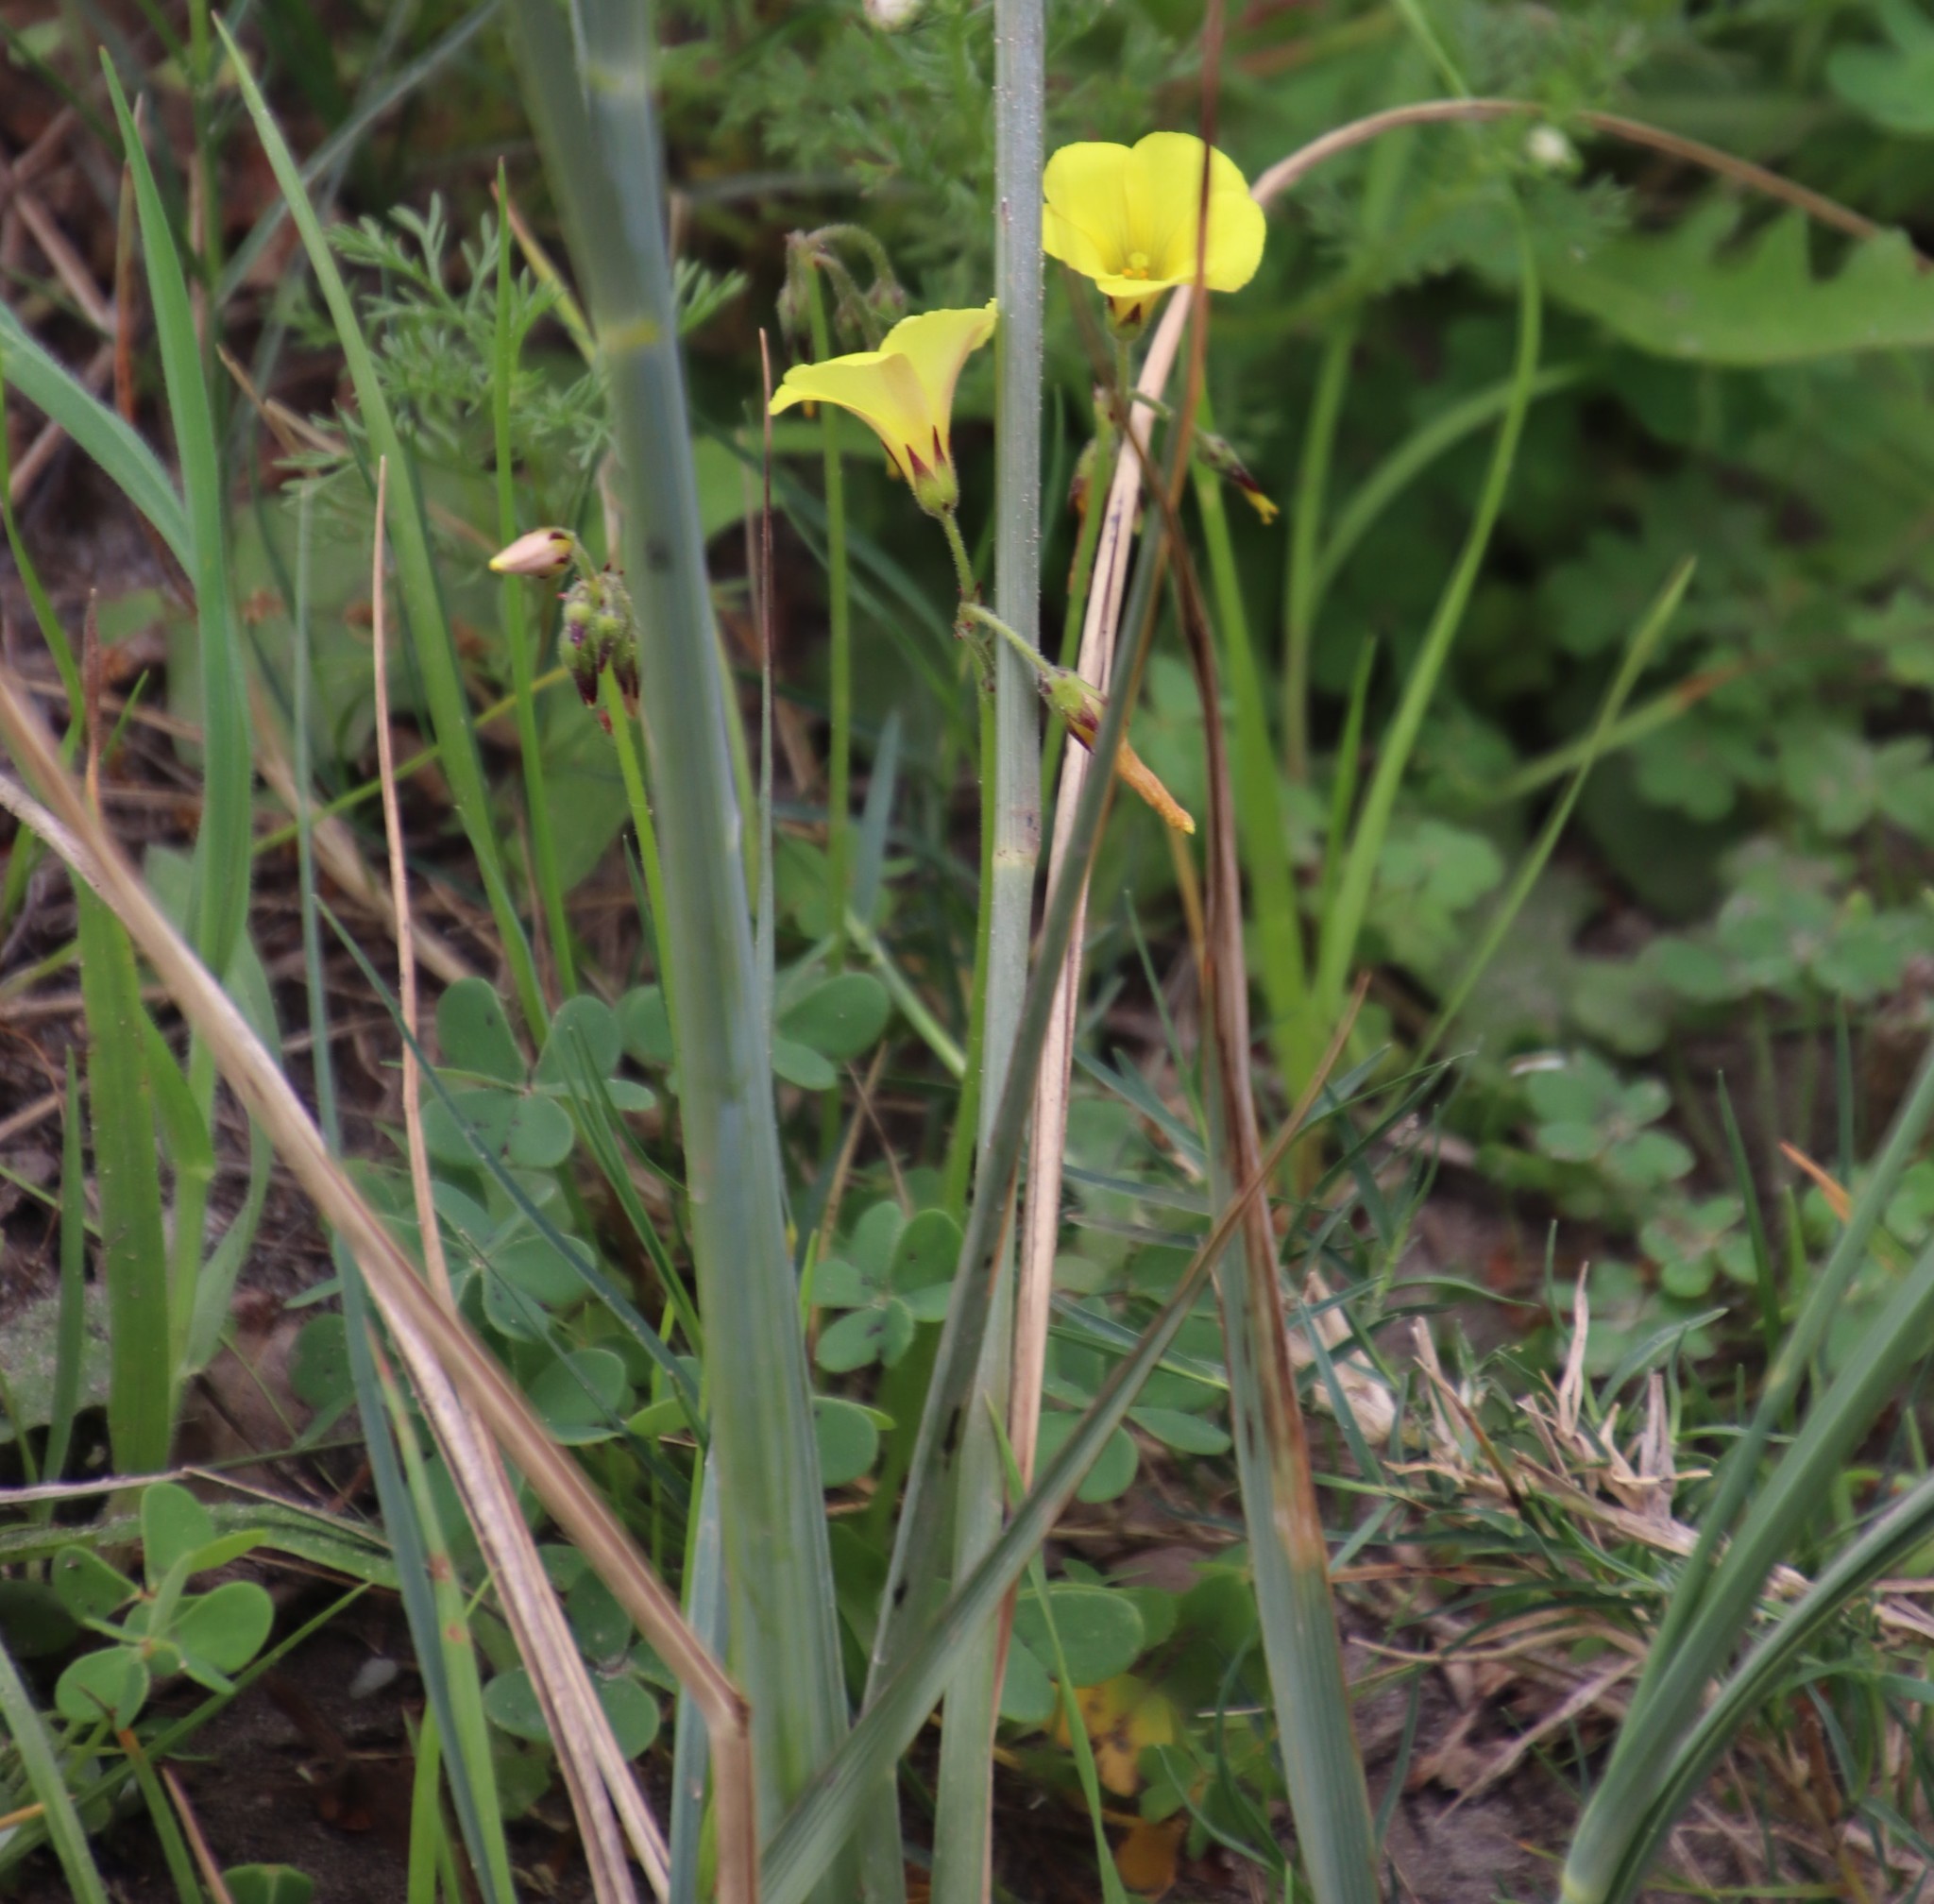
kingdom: Plantae
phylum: Tracheophyta
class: Magnoliopsida
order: Oxalidales
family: Oxalidaceae
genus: Oxalis
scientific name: Oxalis pes-caprae
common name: Bermuda-buttercup
